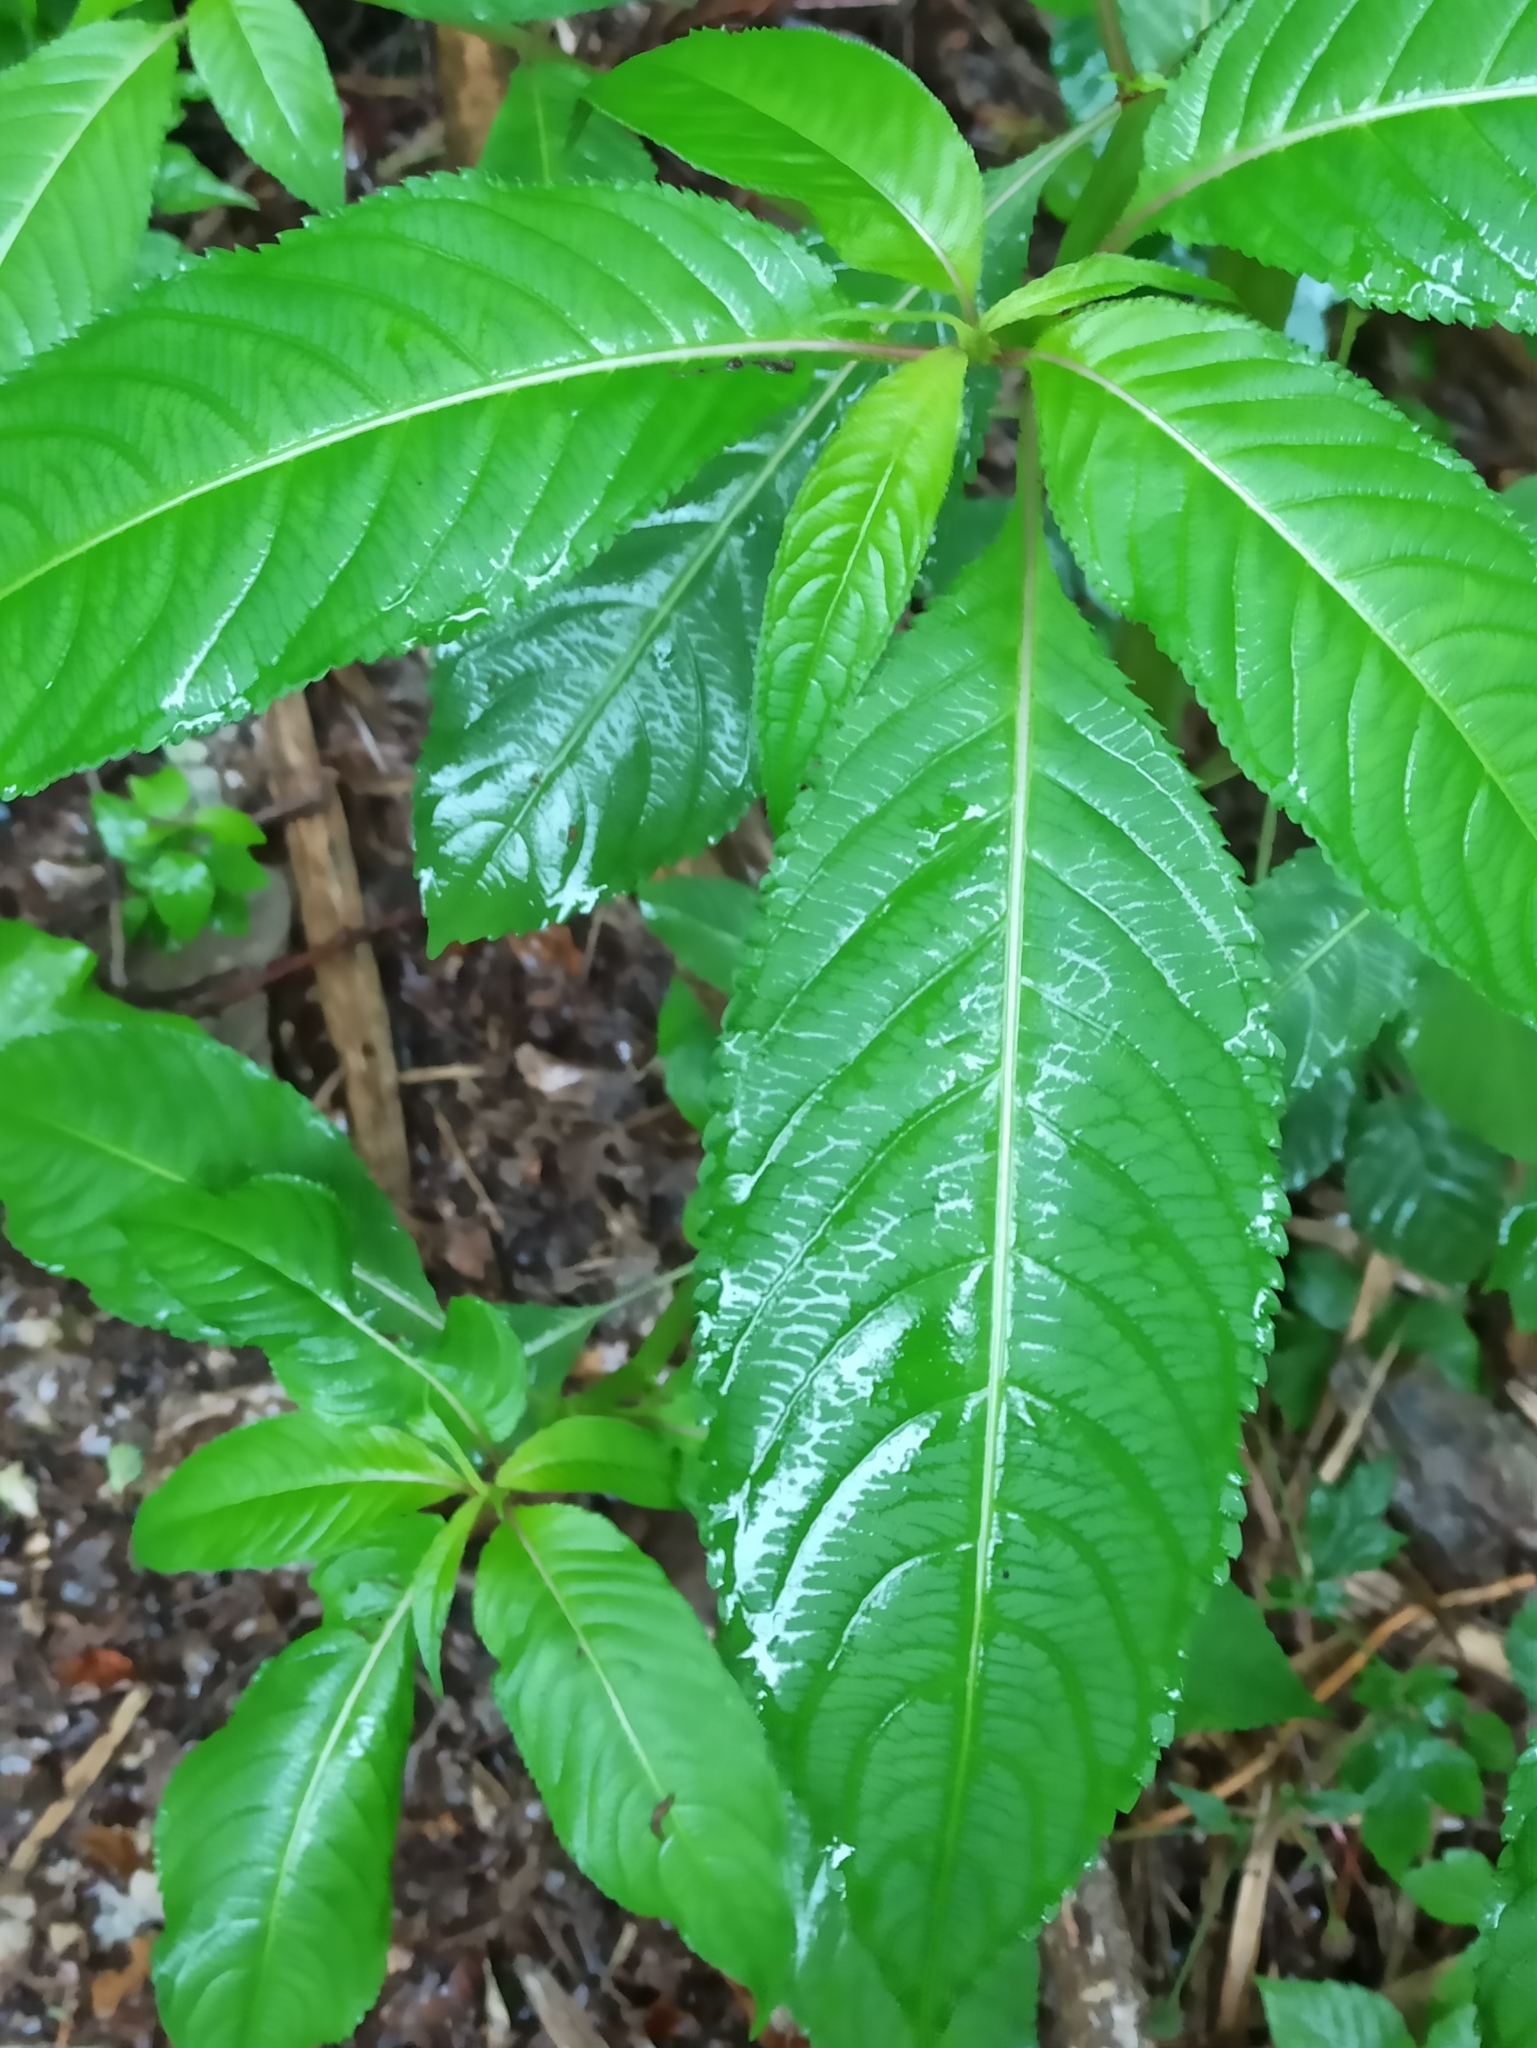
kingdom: Plantae
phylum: Tracheophyta
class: Magnoliopsida
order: Ericales
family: Balsaminaceae
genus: Impatiens
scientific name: Impatiens glandulifera
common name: Himalayan balsam
